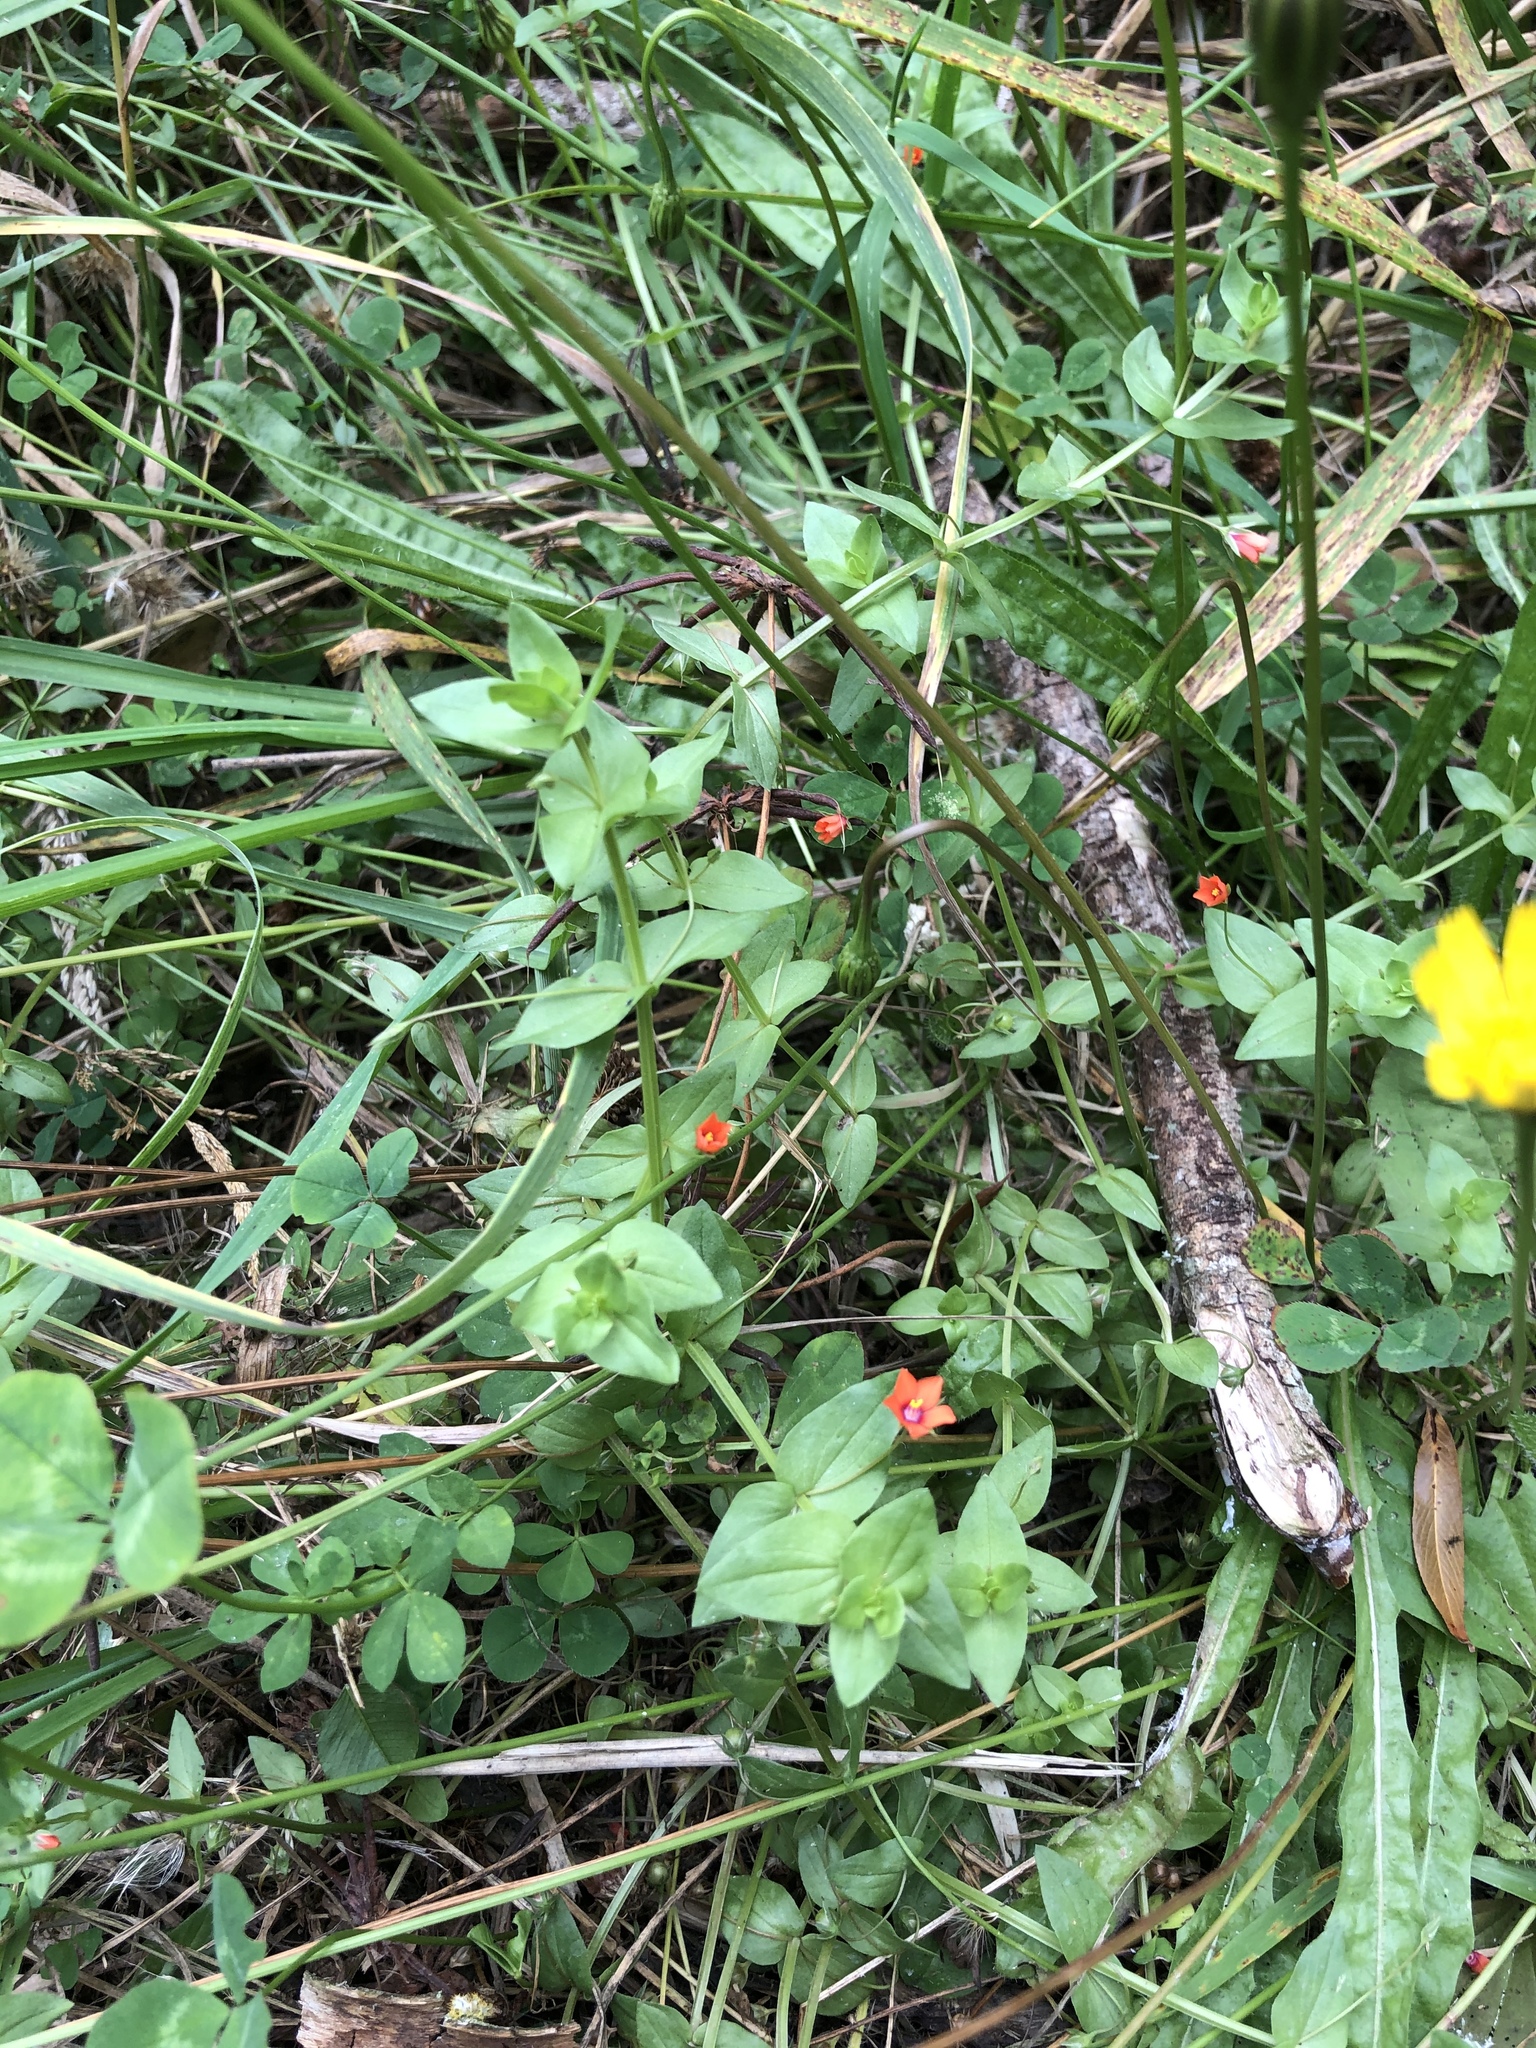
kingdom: Plantae
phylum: Tracheophyta
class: Magnoliopsida
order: Ericales
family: Primulaceae
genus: Lysimachia
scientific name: Lysimachia arvensis
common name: Scarlet pimpernel
